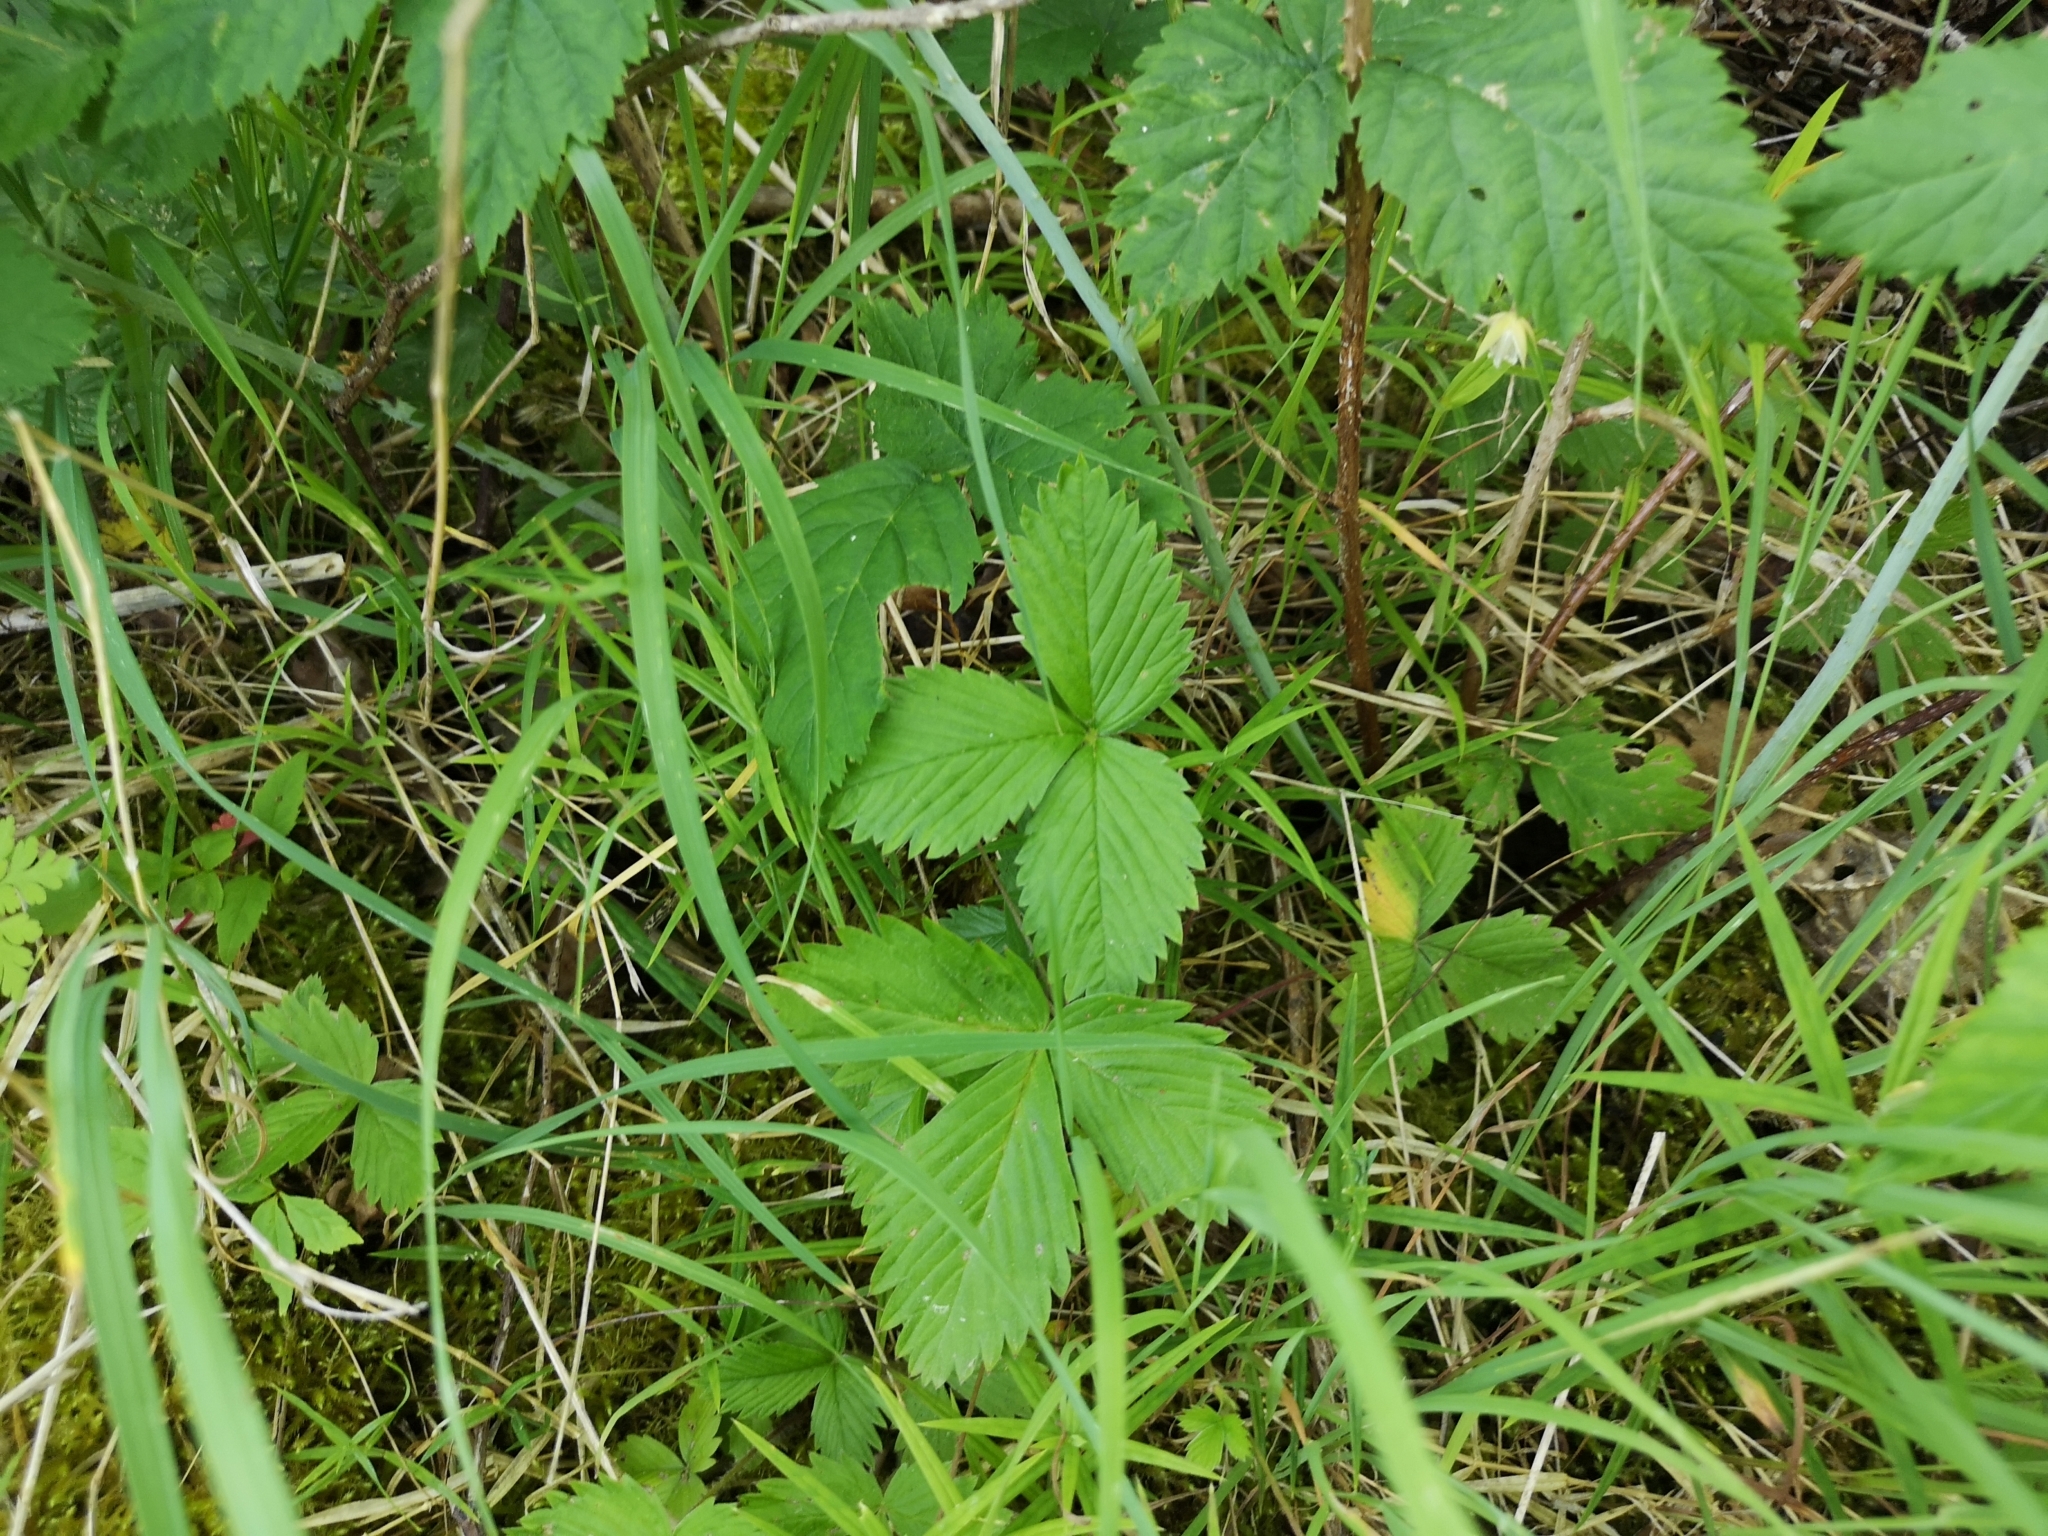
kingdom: Plantae
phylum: Tracheophyta
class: Magnoliopsida
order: Rosales
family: Rosaceae
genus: Fragaria
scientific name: Fragaria vesca
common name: Wild strawberry
